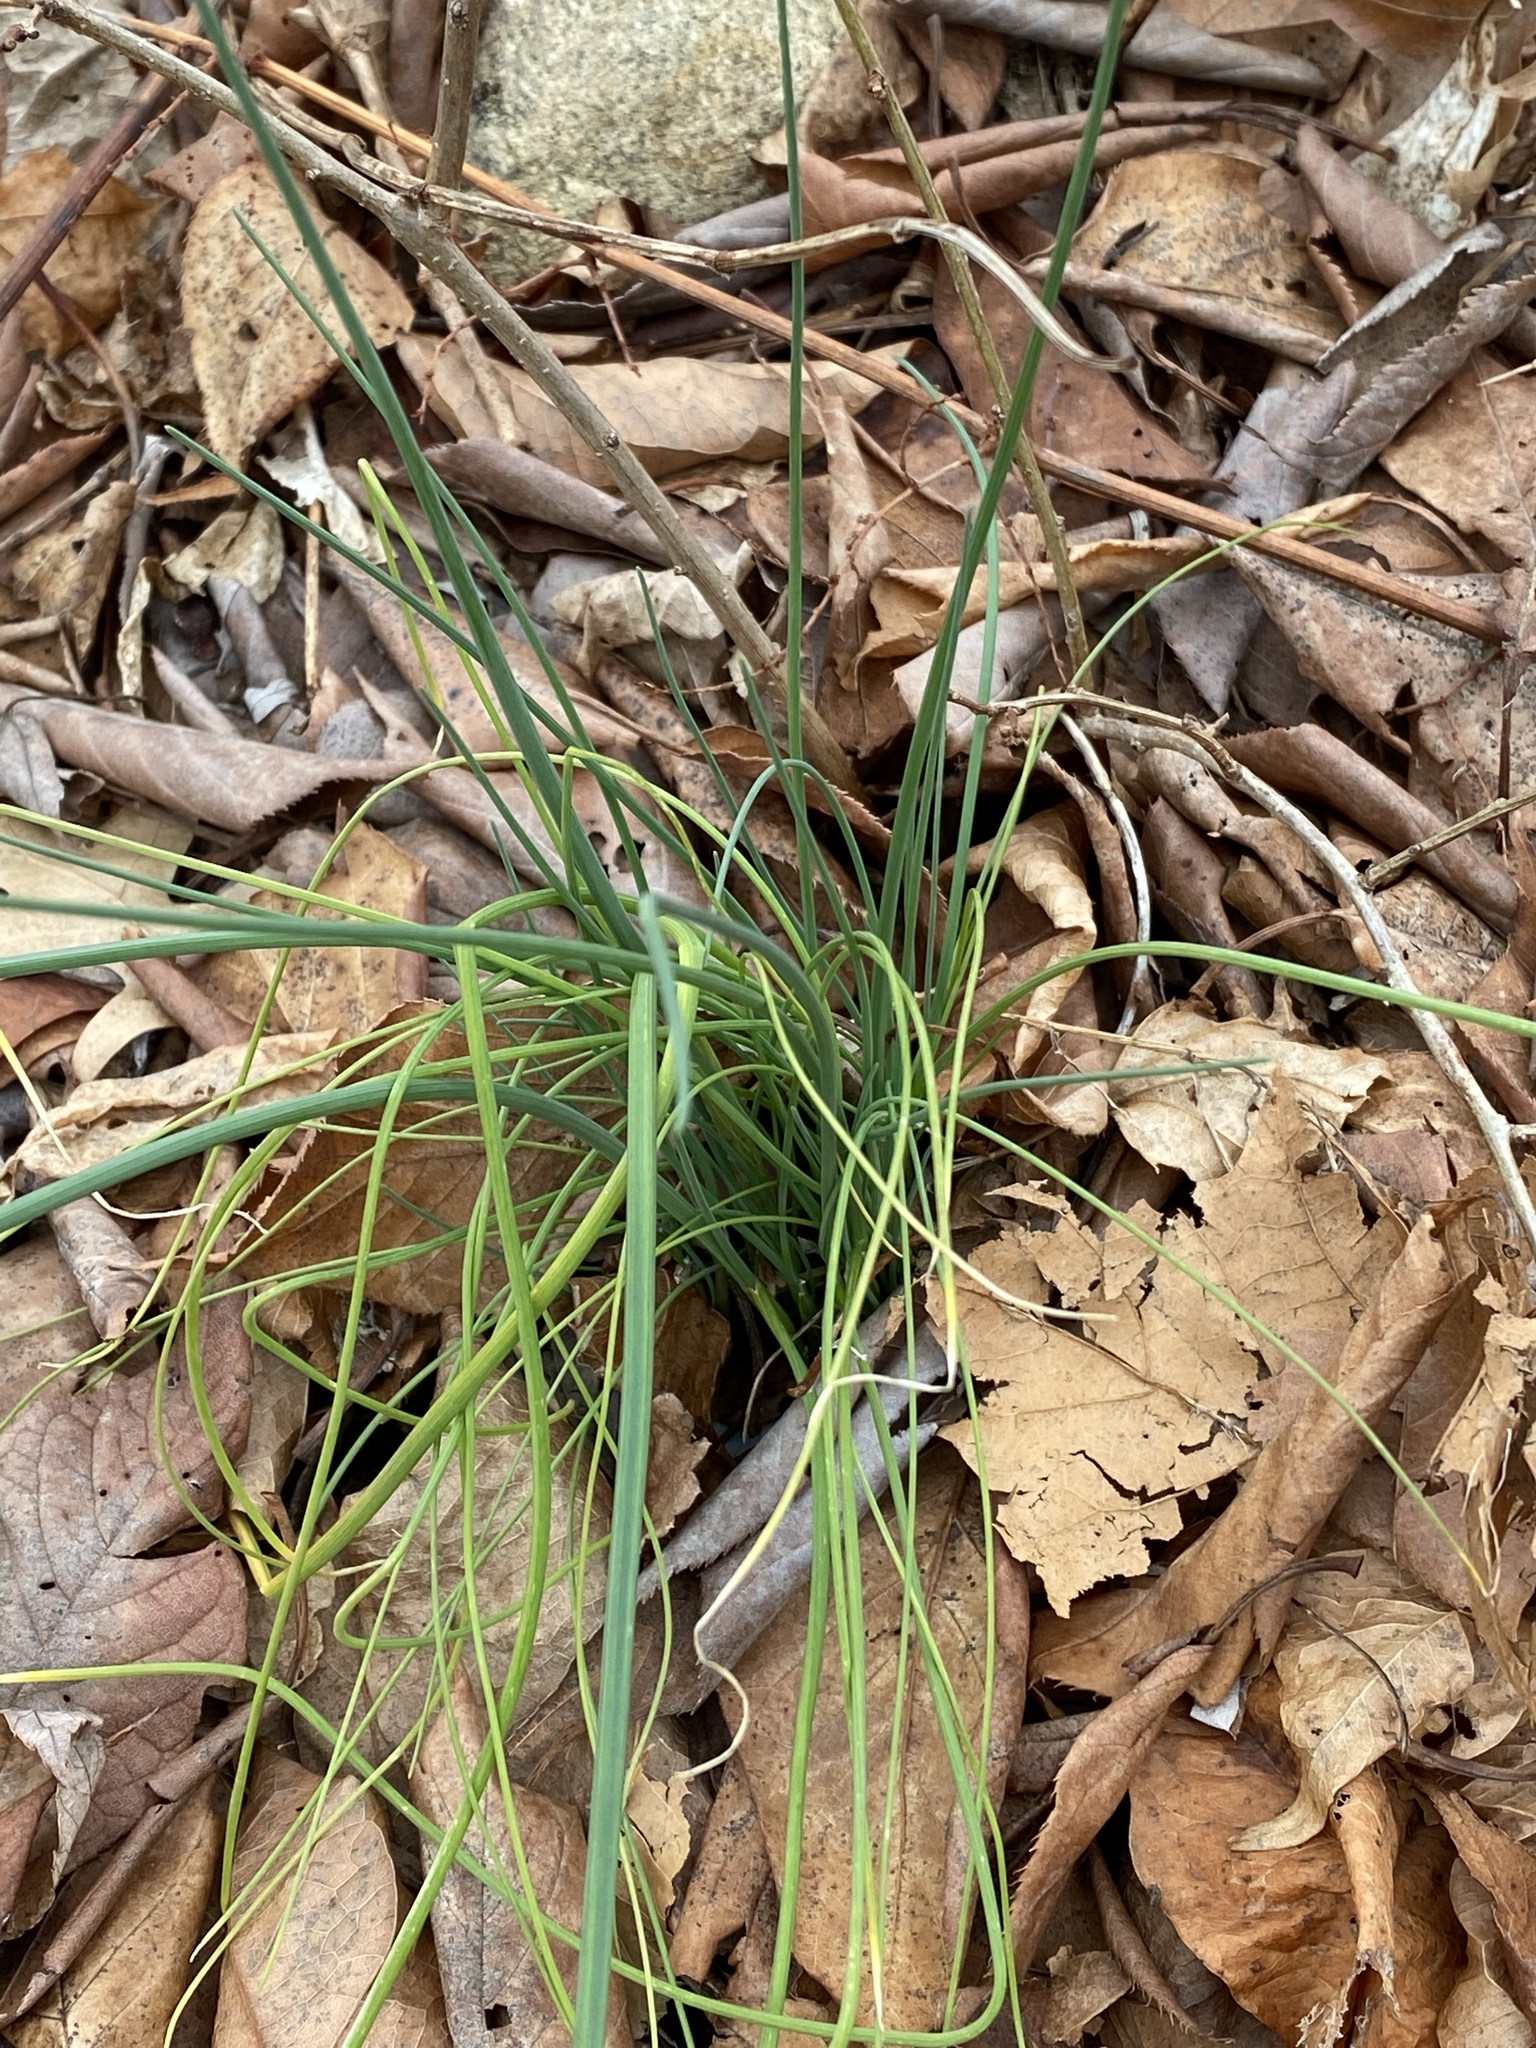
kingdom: Plantae
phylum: Tracheophyta
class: Liliopsida
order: Asparagales
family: Amaryllidaceae
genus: Allium
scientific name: Allium vineale
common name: Crow garlic
